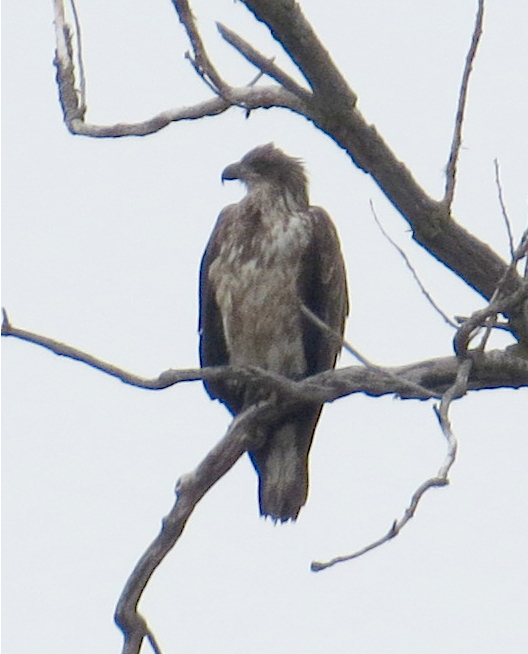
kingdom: Animalia
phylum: Chordata
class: Aves
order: Accipitriformes
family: Accipitridae
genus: Haliaeetus
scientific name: Haliaeetus leucocephalus
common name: Bald eagle
